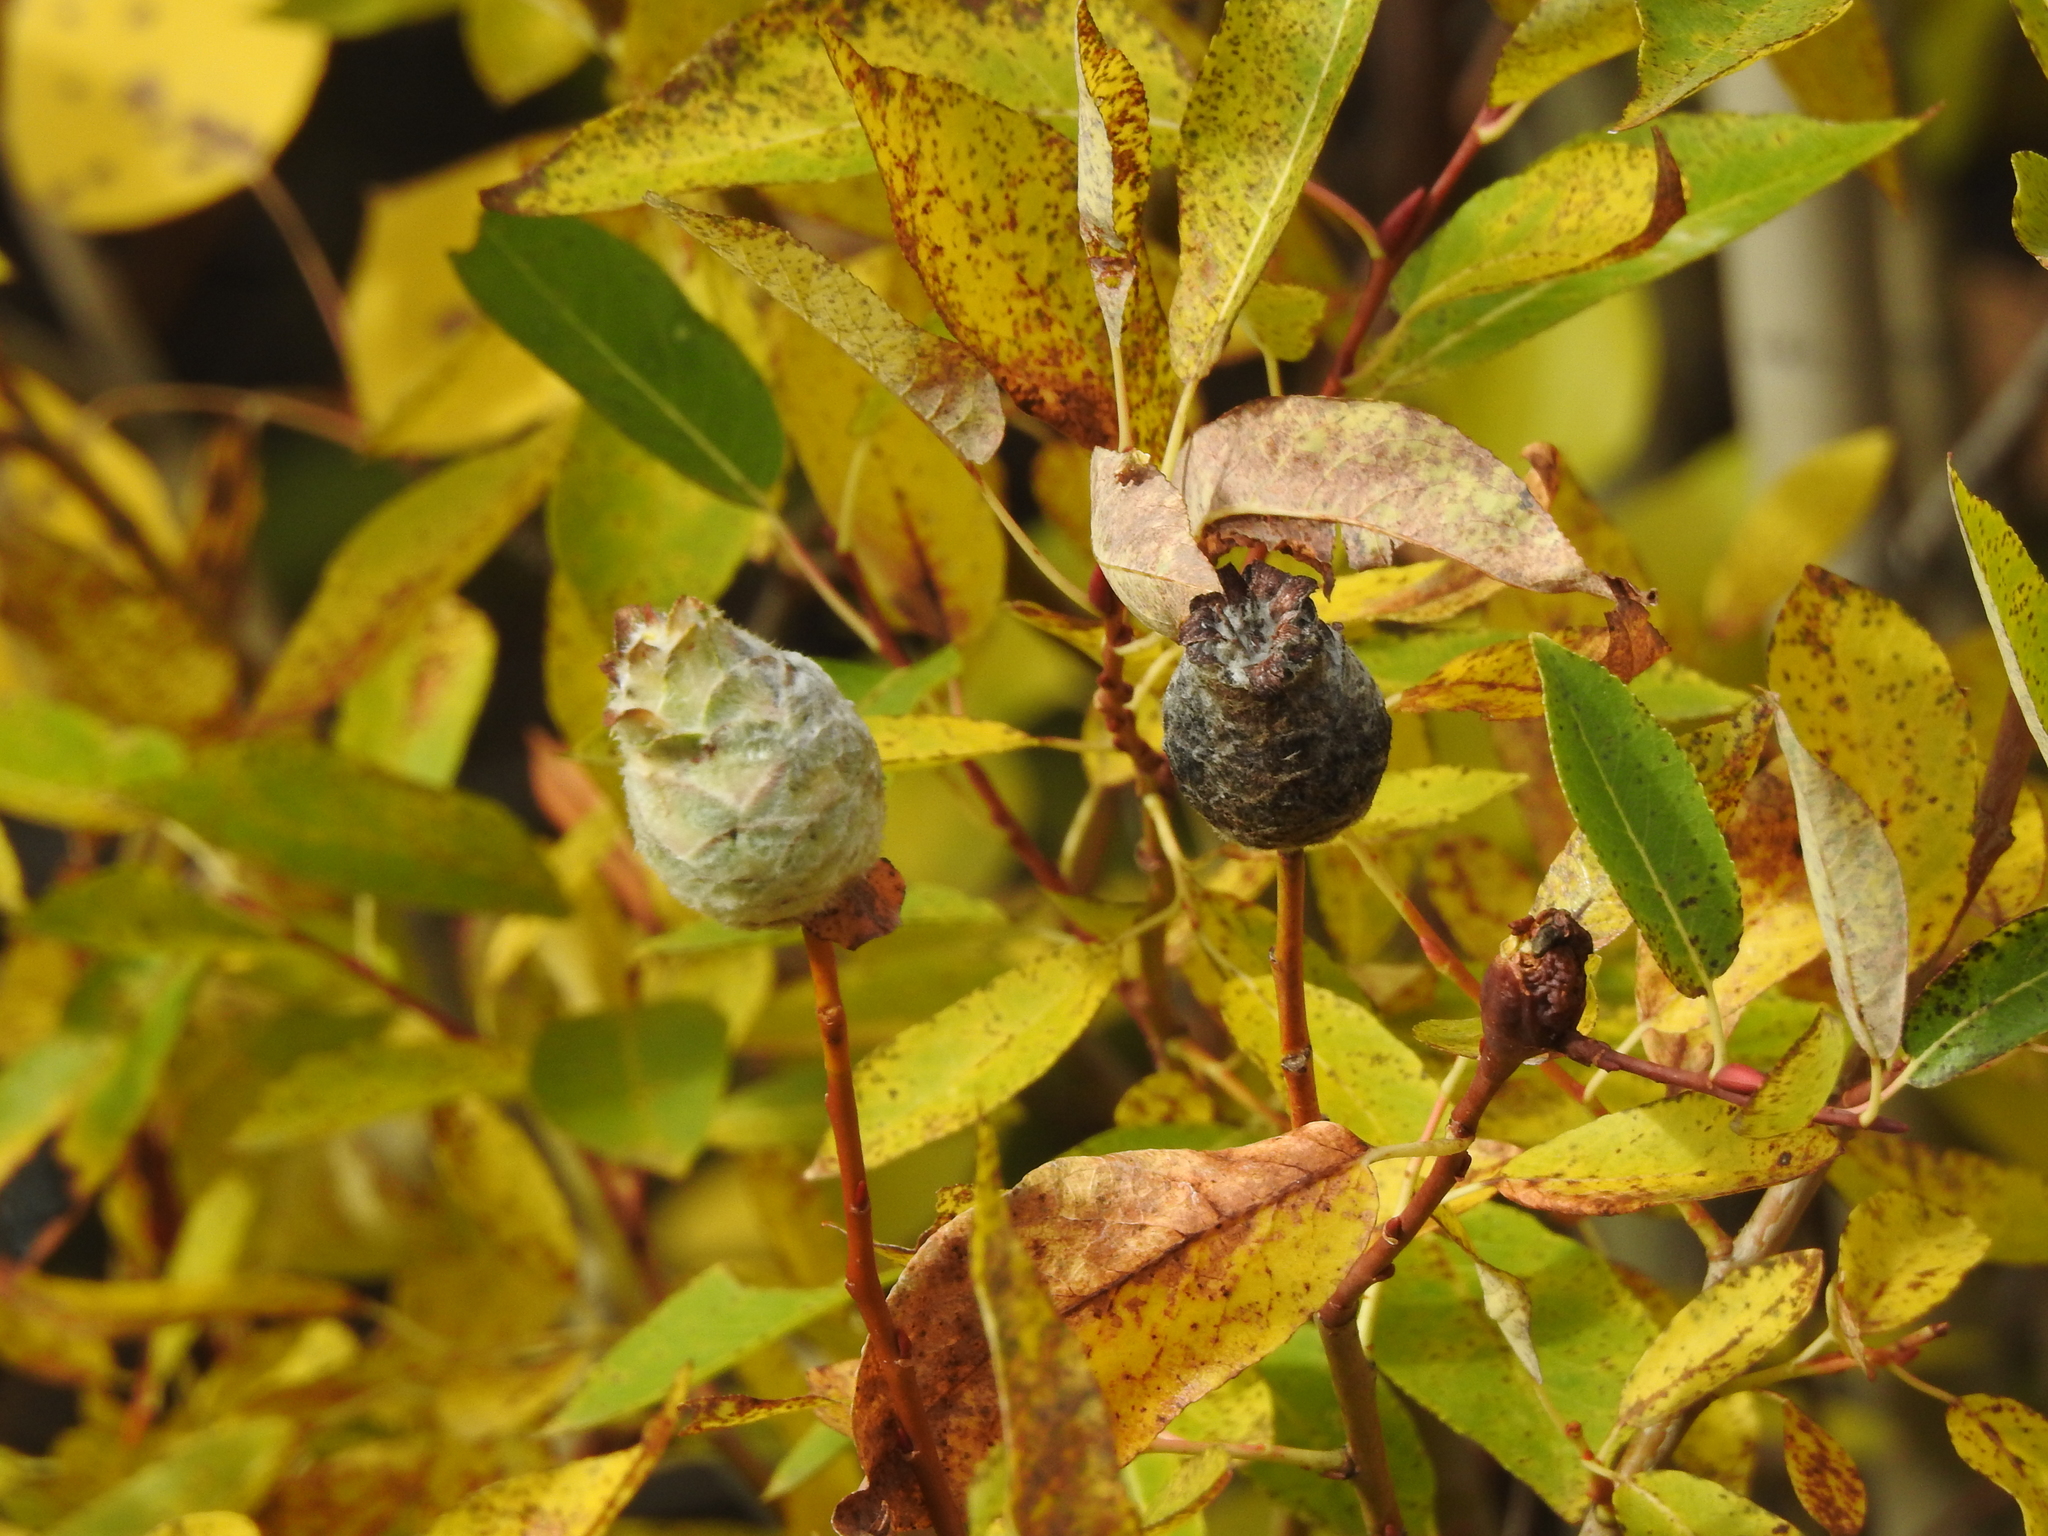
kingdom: Animalia
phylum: Arthropoda
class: Insecta
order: Diptera
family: Cecidomyiidae
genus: Rabdophaga
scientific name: Rabdophaga strobiloides
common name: Willow pinecone gall midge
